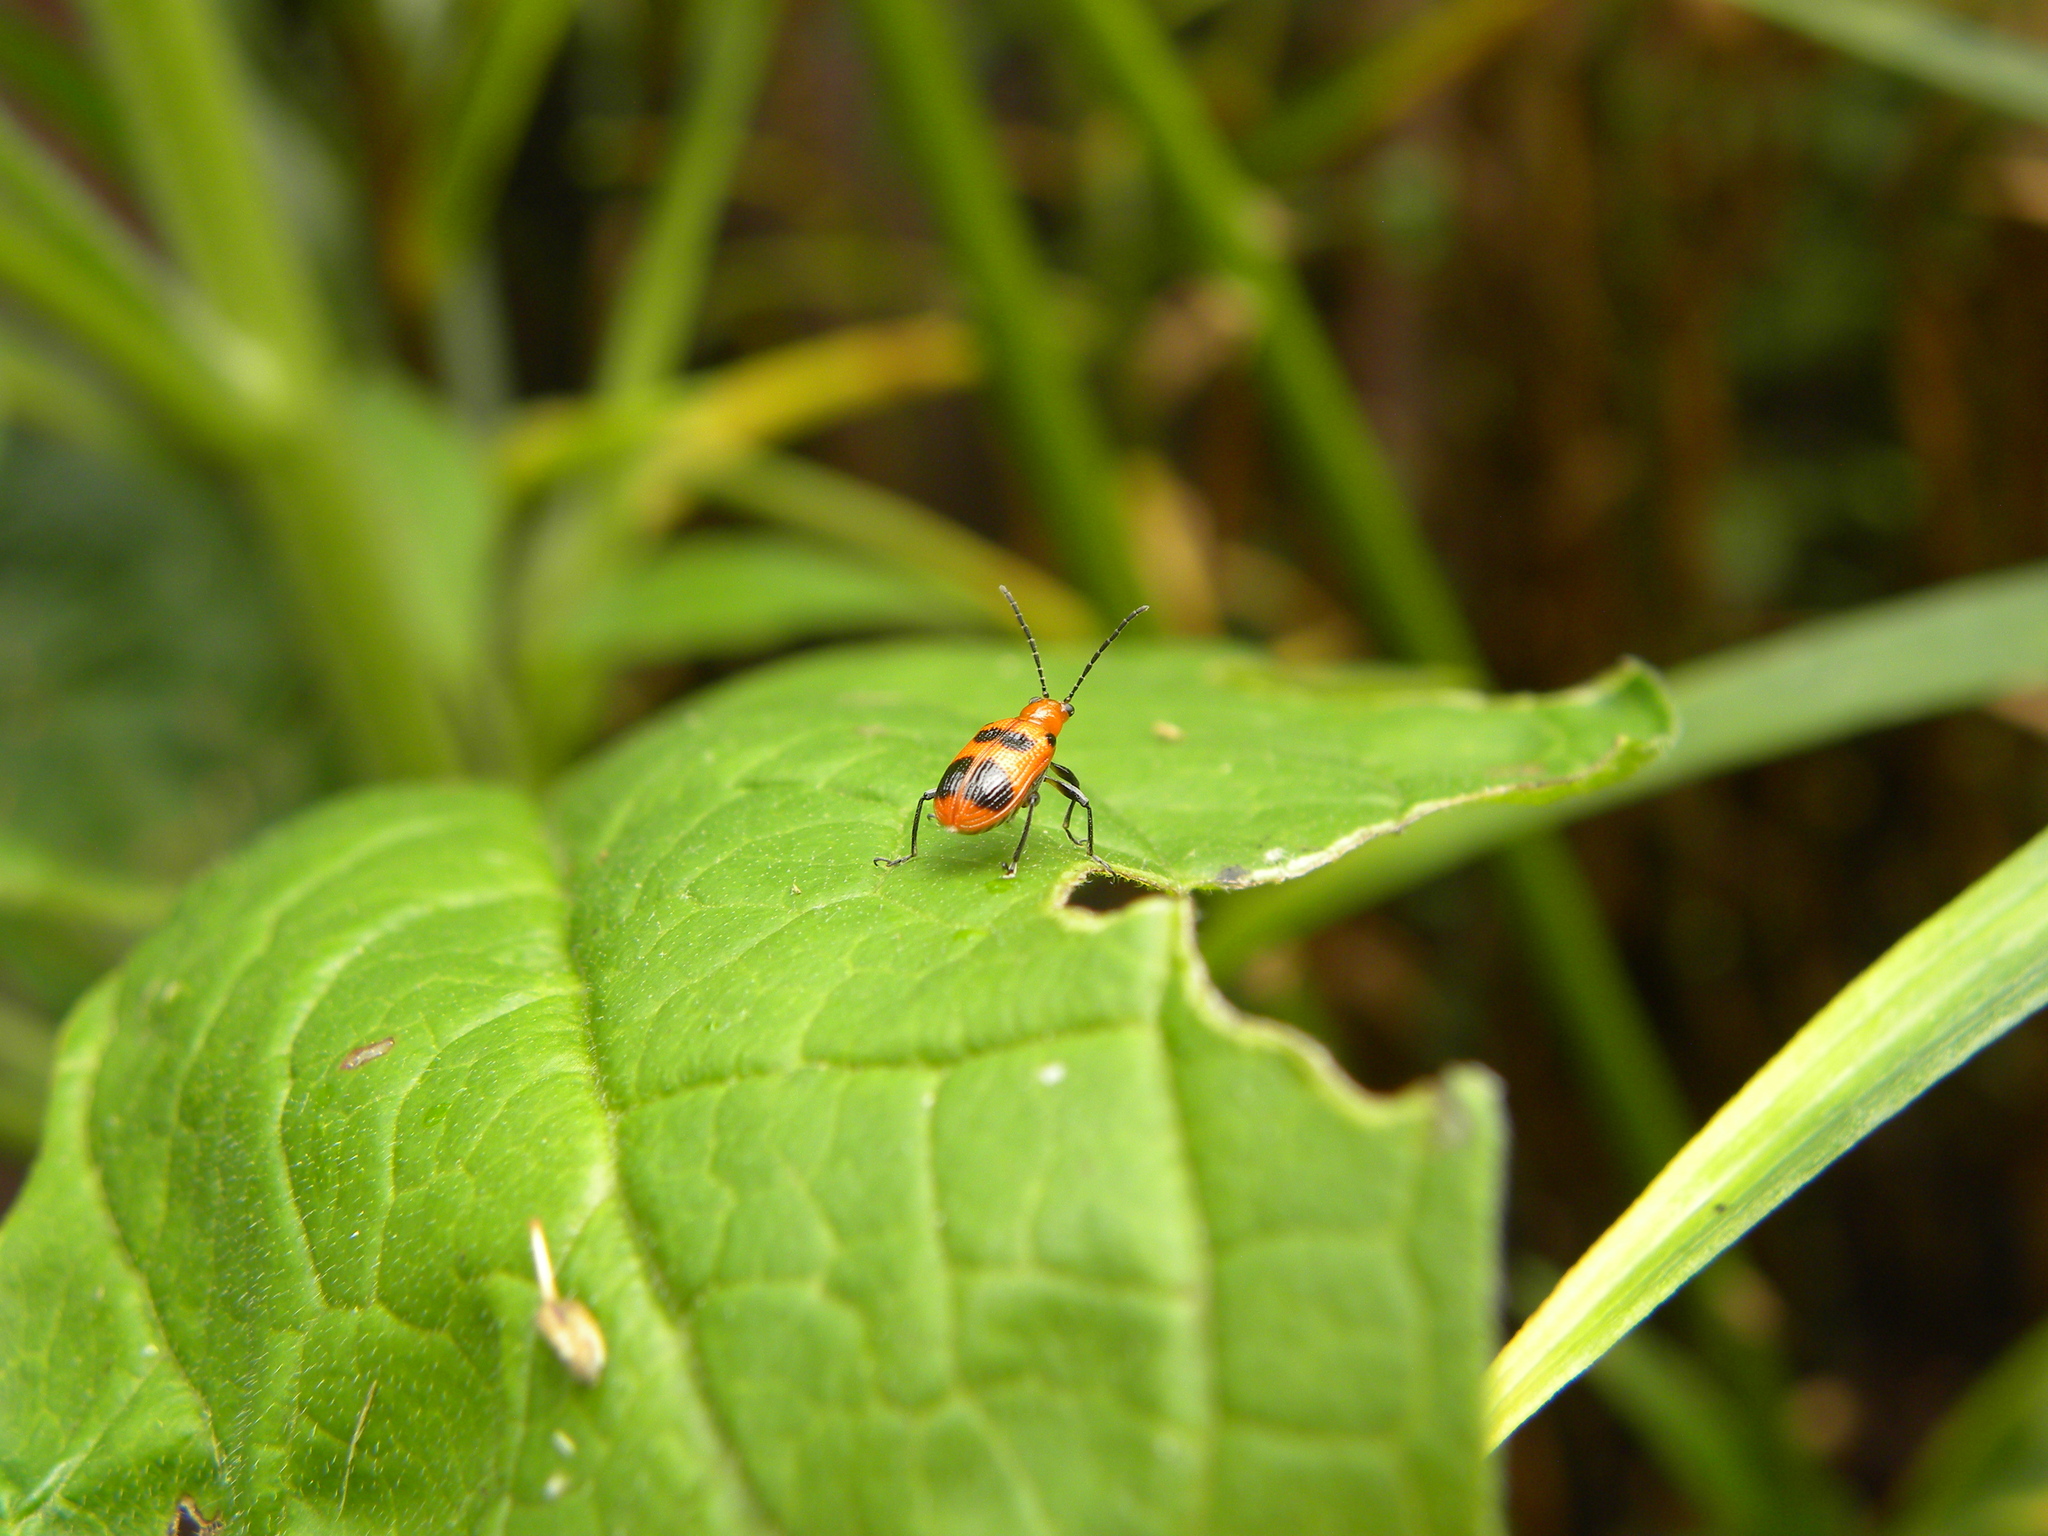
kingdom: Animalia
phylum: Arthropoda
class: Insecta
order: Coleoptera
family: Chrysomelidae
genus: Neolema
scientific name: Neolema sexpunctata
